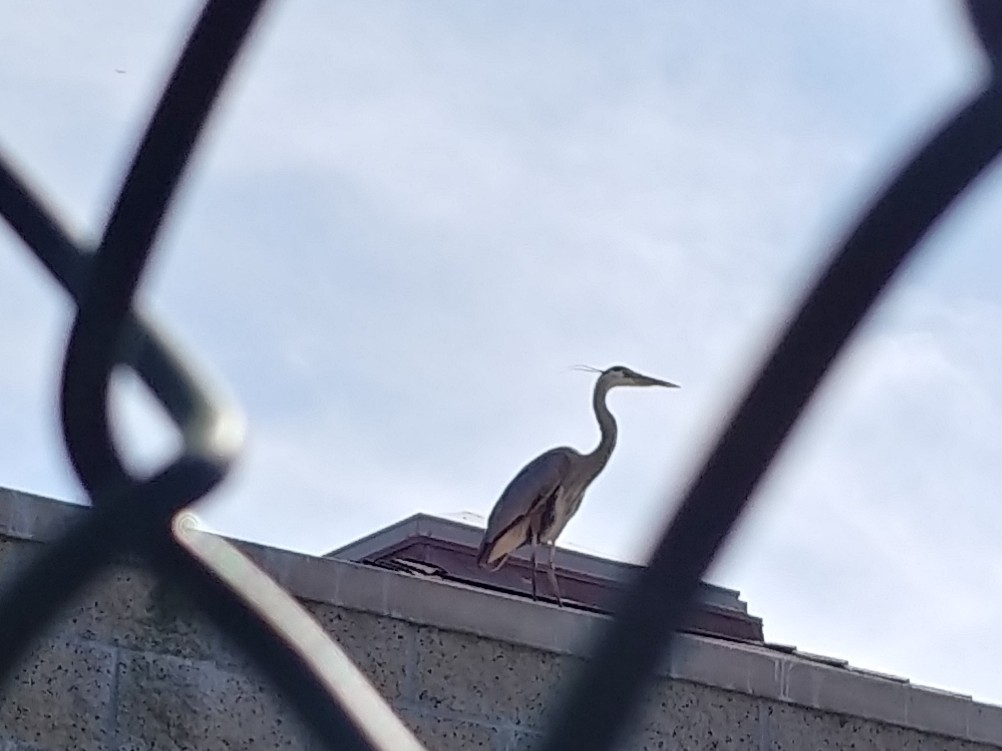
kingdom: Animalia
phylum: Chordata
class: Aves
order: Pelecaniformes
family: Ardeidae
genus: Ardea
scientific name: Ardea herodias
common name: Great blue heron
